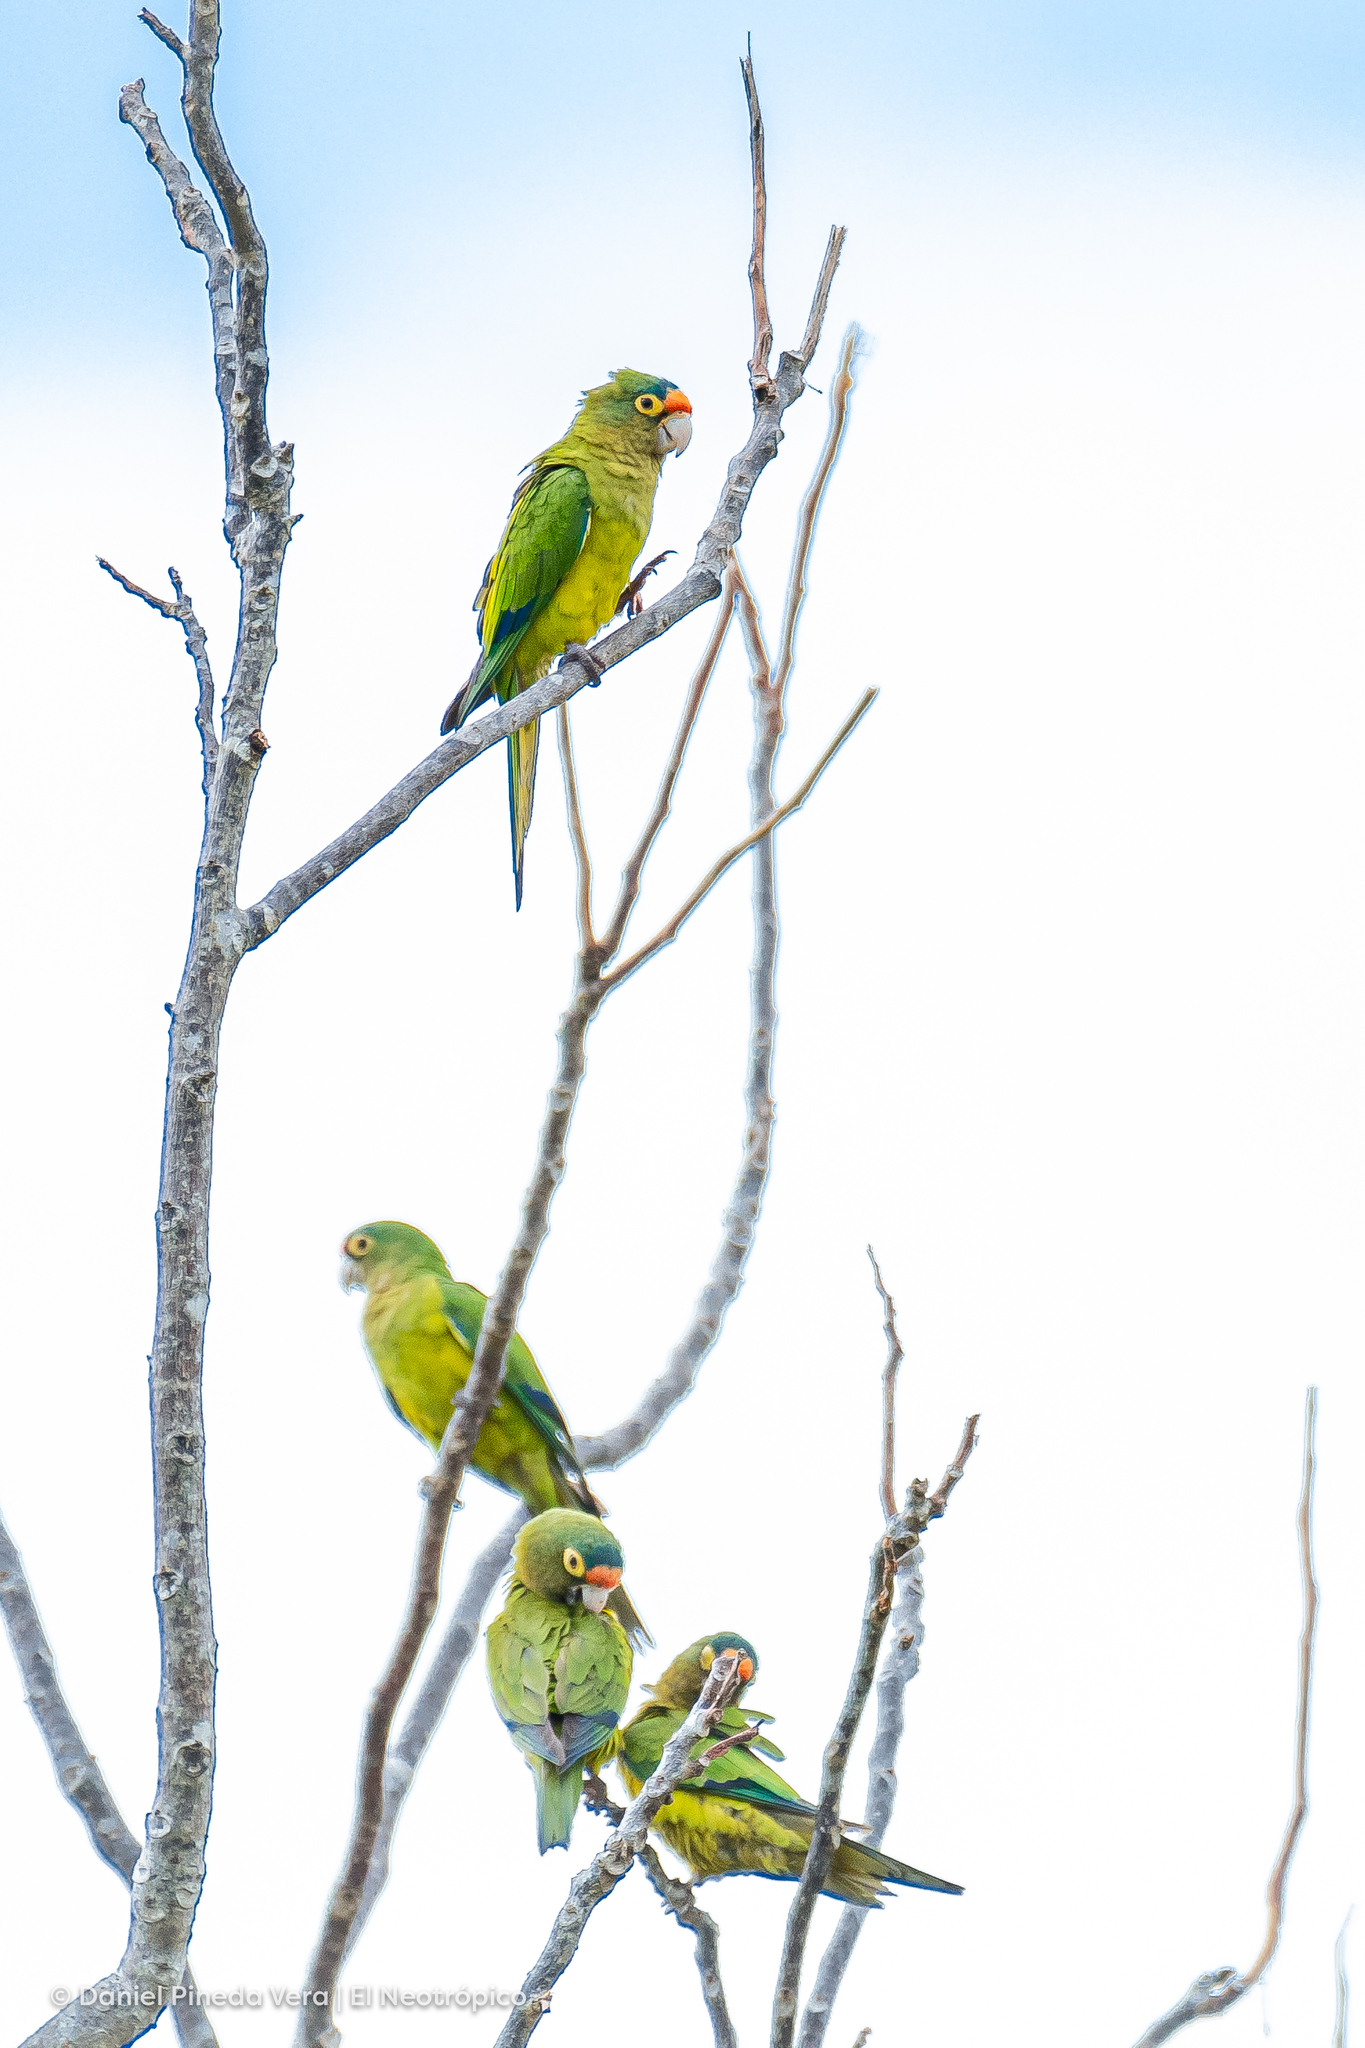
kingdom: Animalia
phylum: Chordata
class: Aves
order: Psittaciformes
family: Psittacidae
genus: Aratinga
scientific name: Aratinga canicularis
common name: Orange-fronted parakeet
